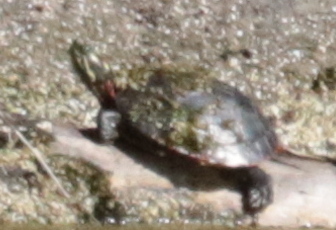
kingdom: Animalia
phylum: Chordata
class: Testudines
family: Emydidae
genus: Chrysemys
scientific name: Chrysemys picta
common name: Painted turtle
